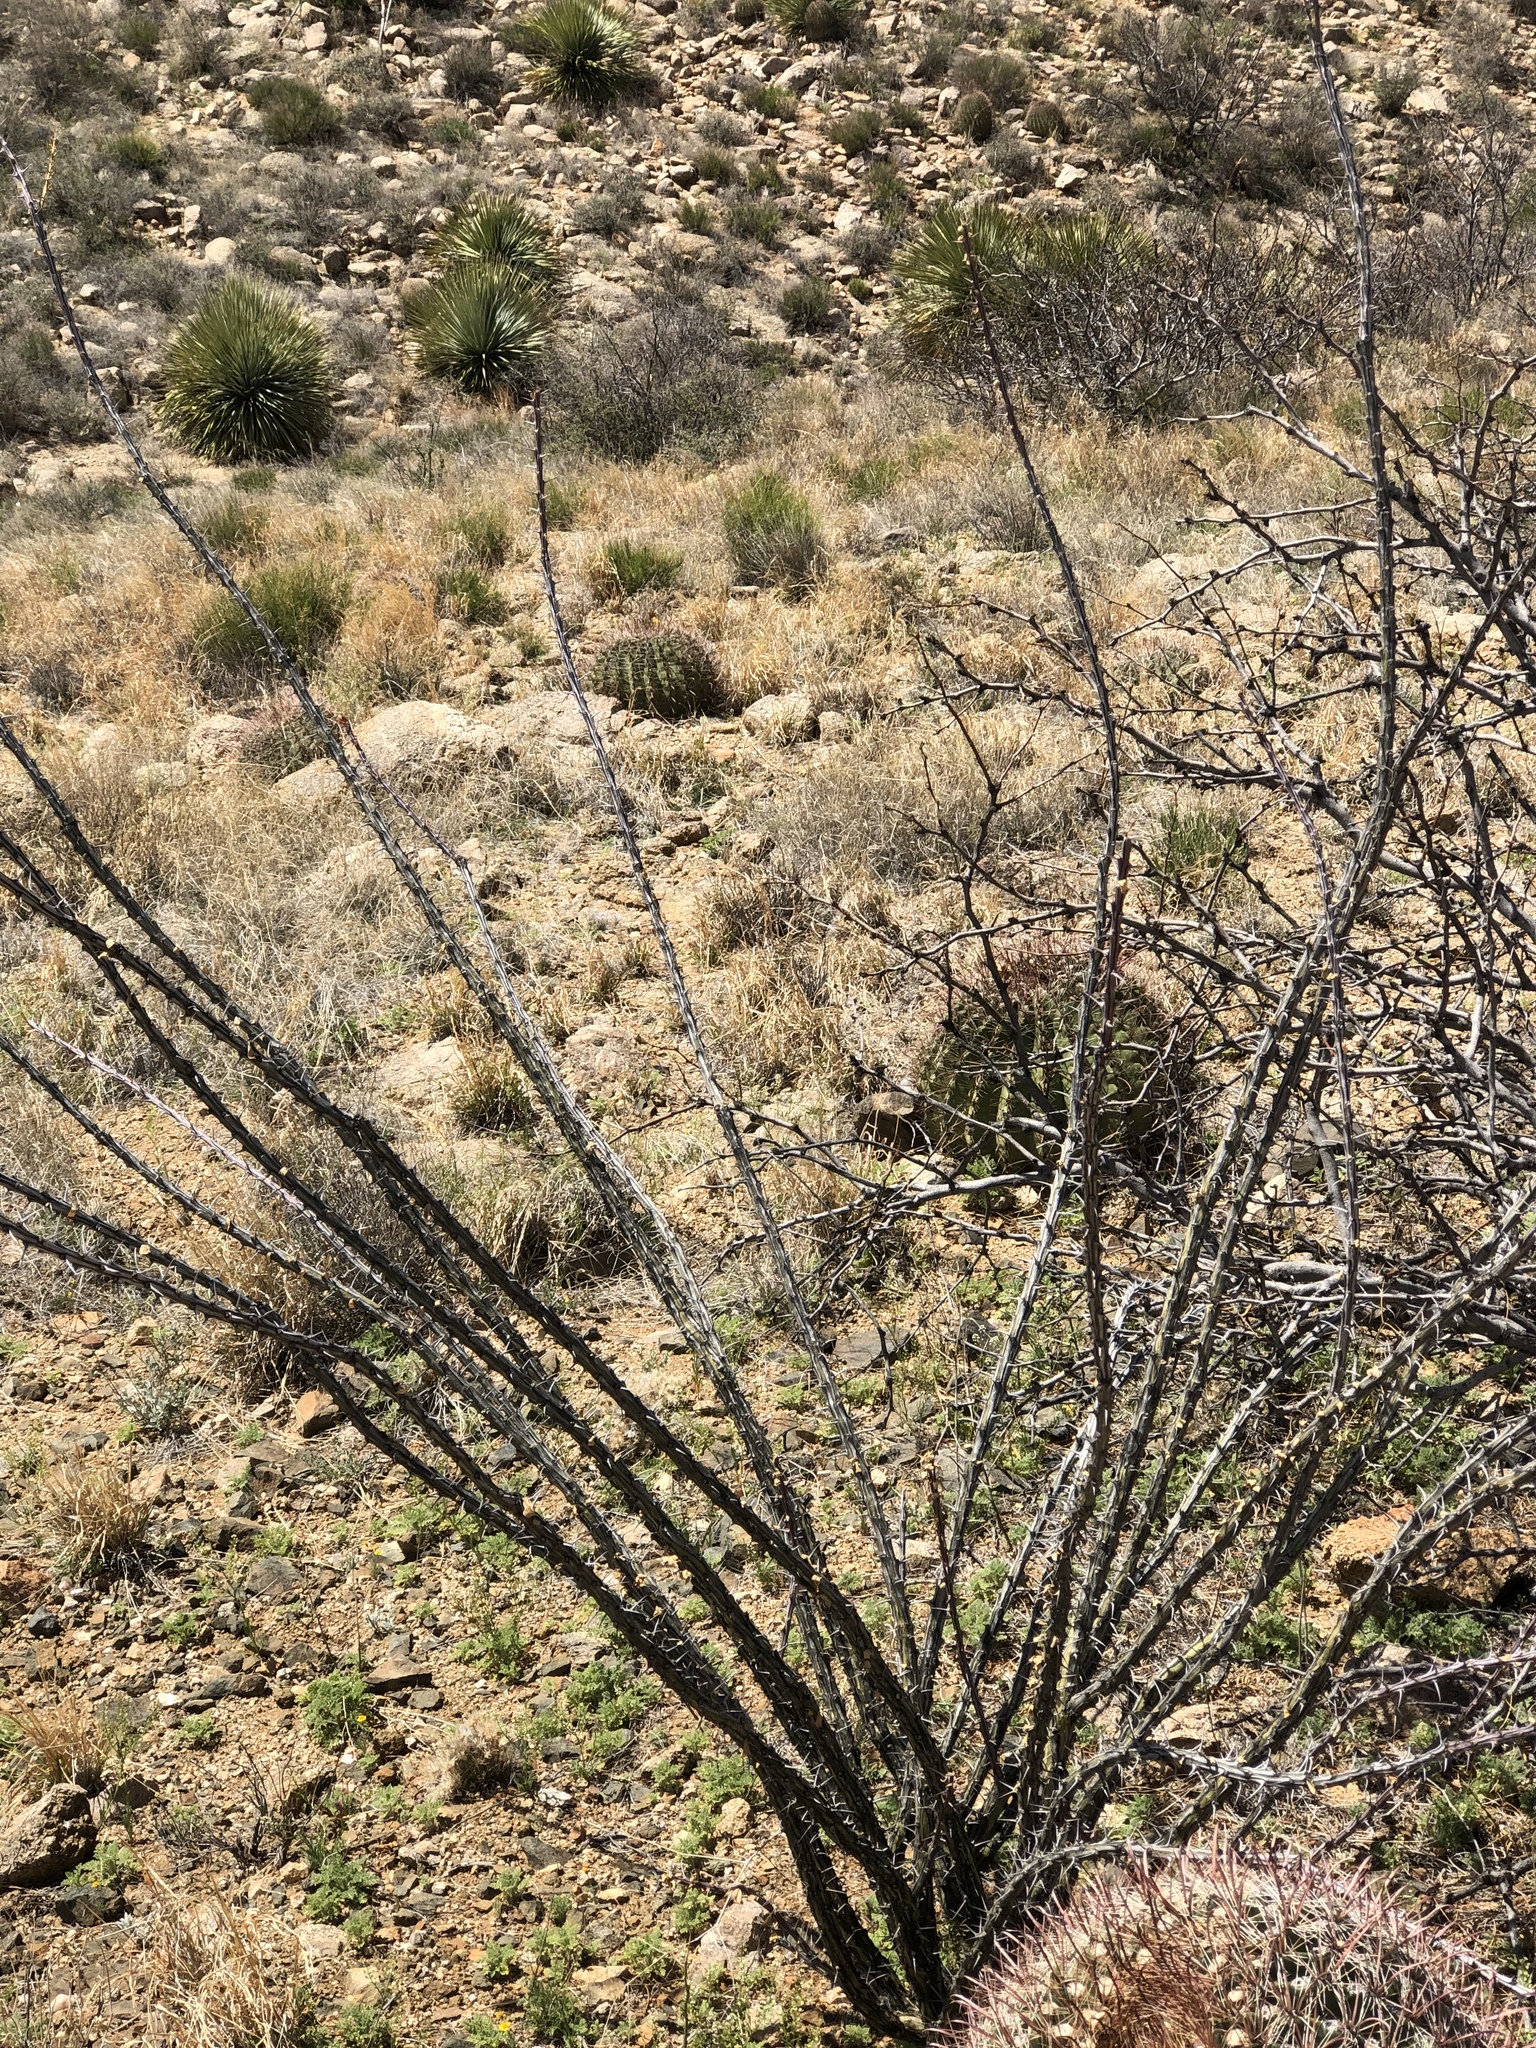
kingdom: Plantae
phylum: Tracheophyta
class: Magnoliopsida
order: Ericales
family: Fouquieriaceae
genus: Fouquieria
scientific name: Fouquieria splendens
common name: Vine-cactus
